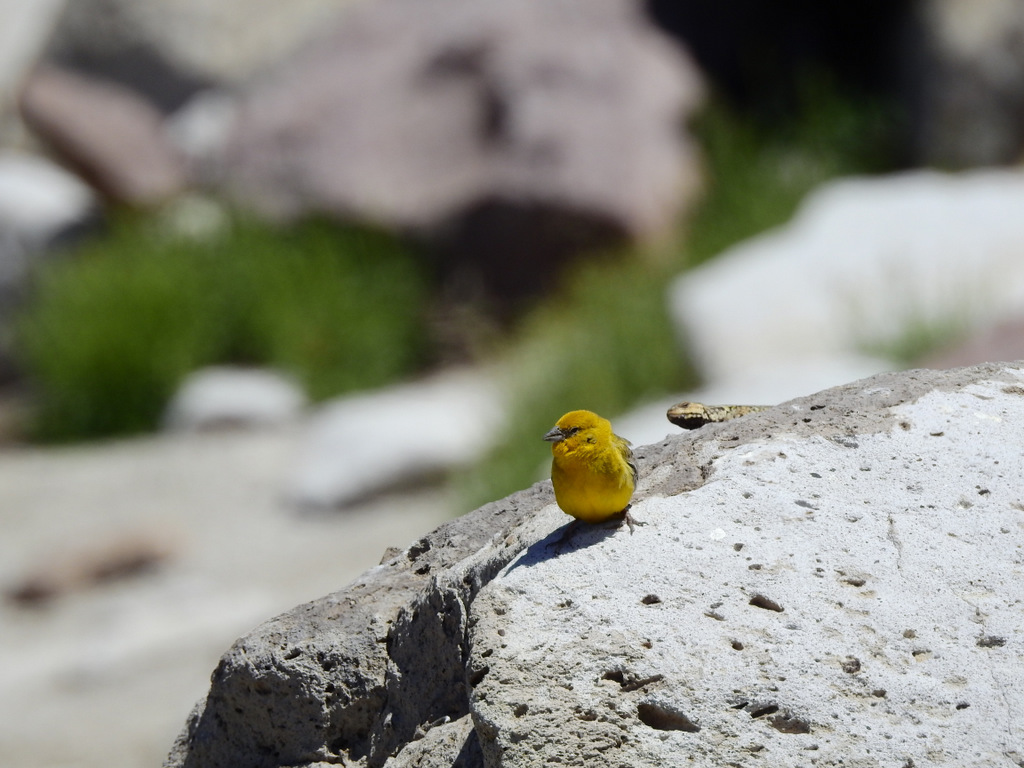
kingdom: Animalia
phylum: Chordata
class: Aves
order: Passeriformes
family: Thraupidae
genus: Sicalis
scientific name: Sicalis auriventris
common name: Greater yellow finch
